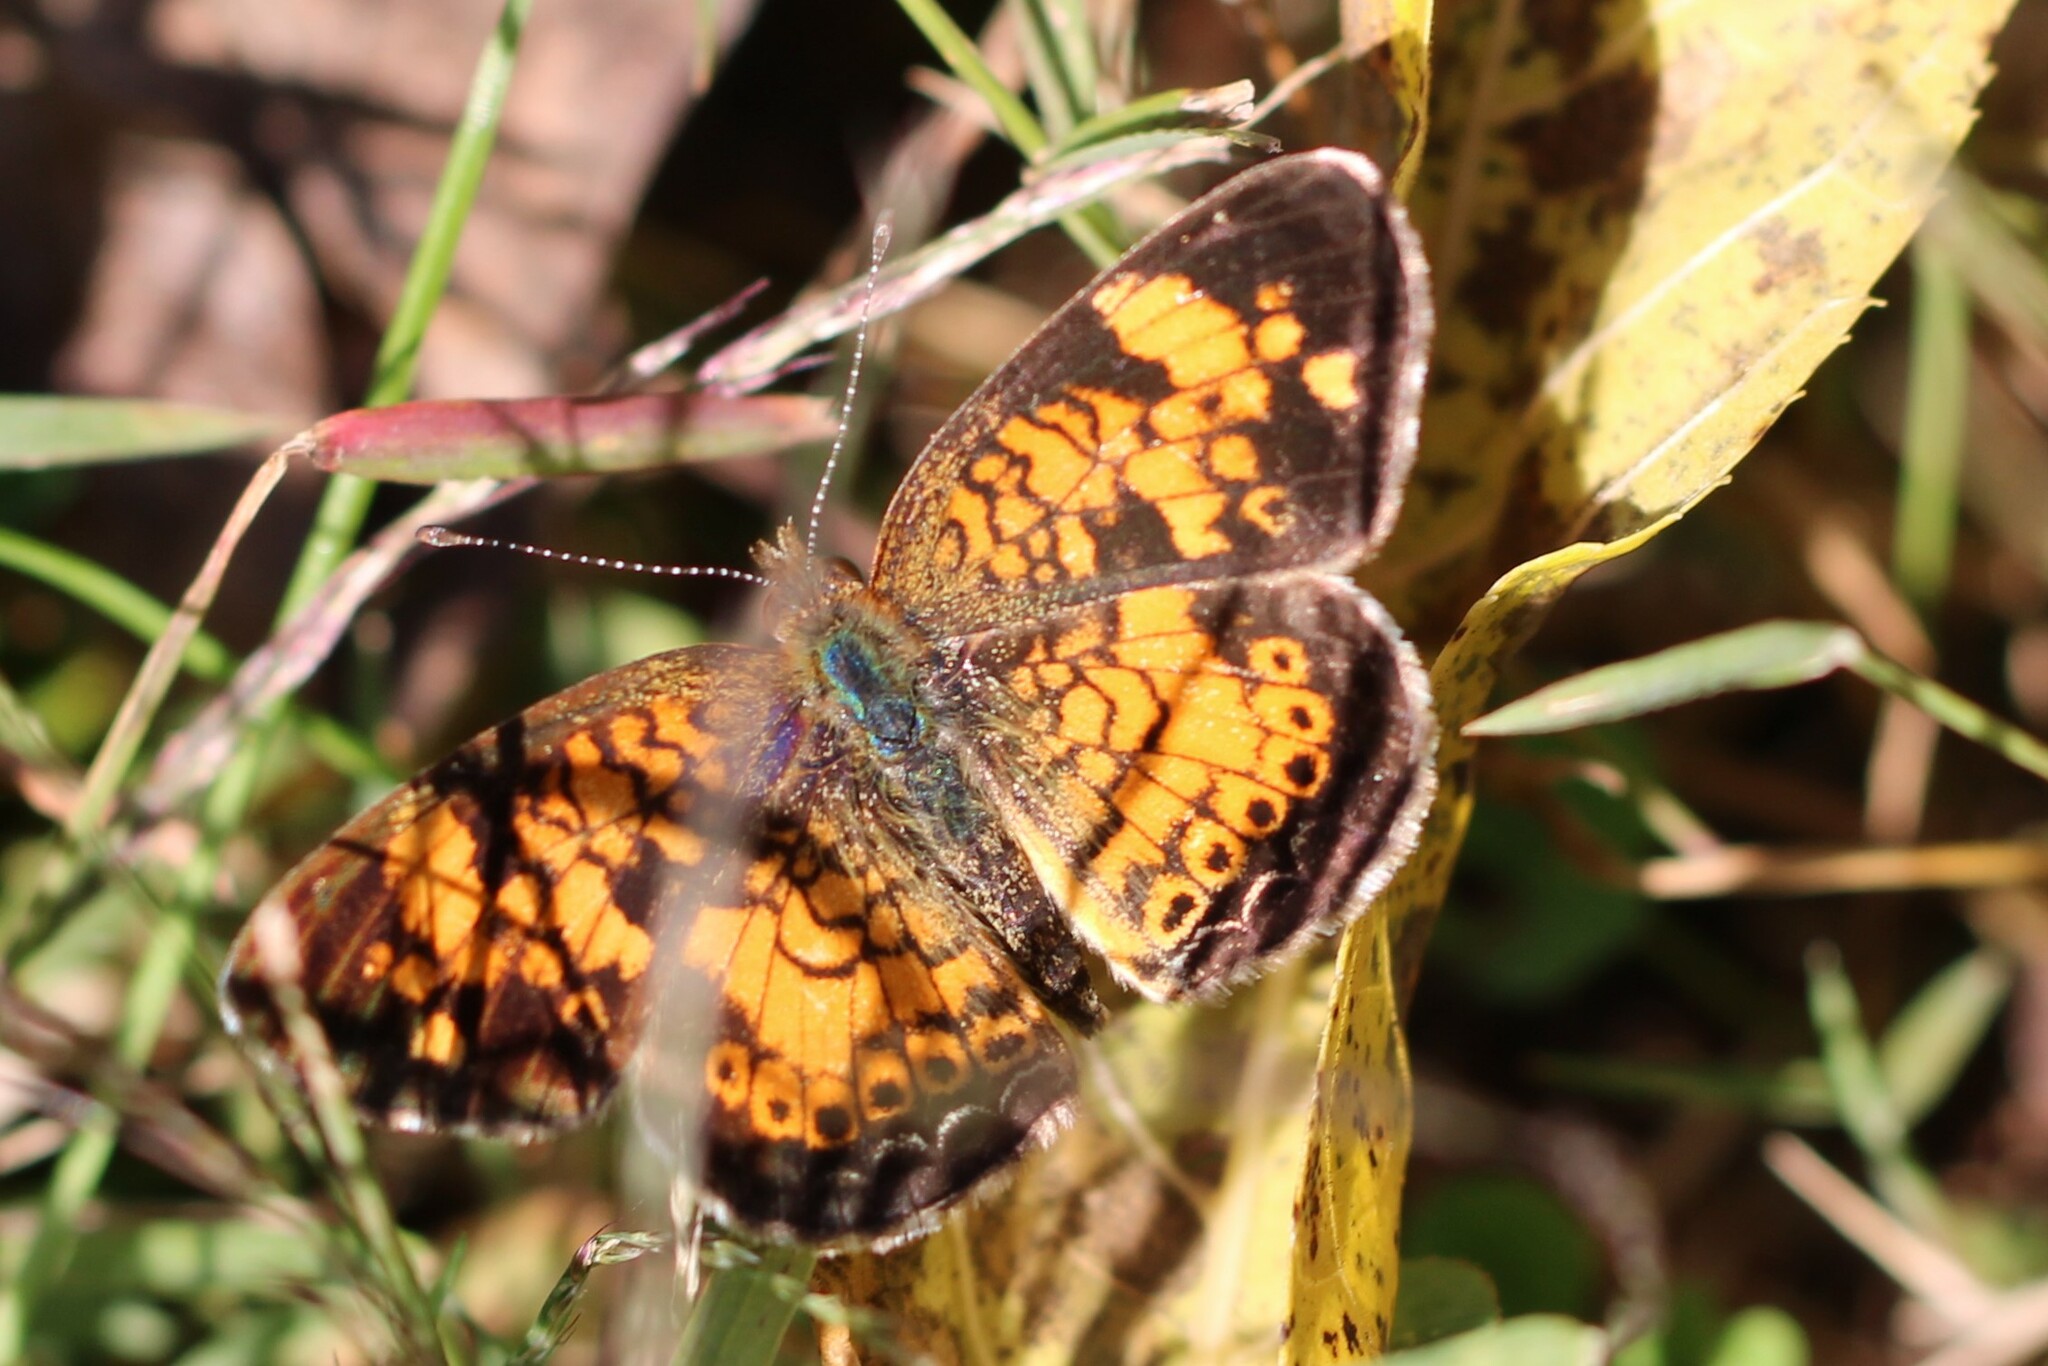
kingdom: Animalia
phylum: Arthropoda
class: Insecta
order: Lepidoptera
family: Nymphalidae
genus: Phyciodes
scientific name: Phyciodes tharos
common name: Pearl crescent
